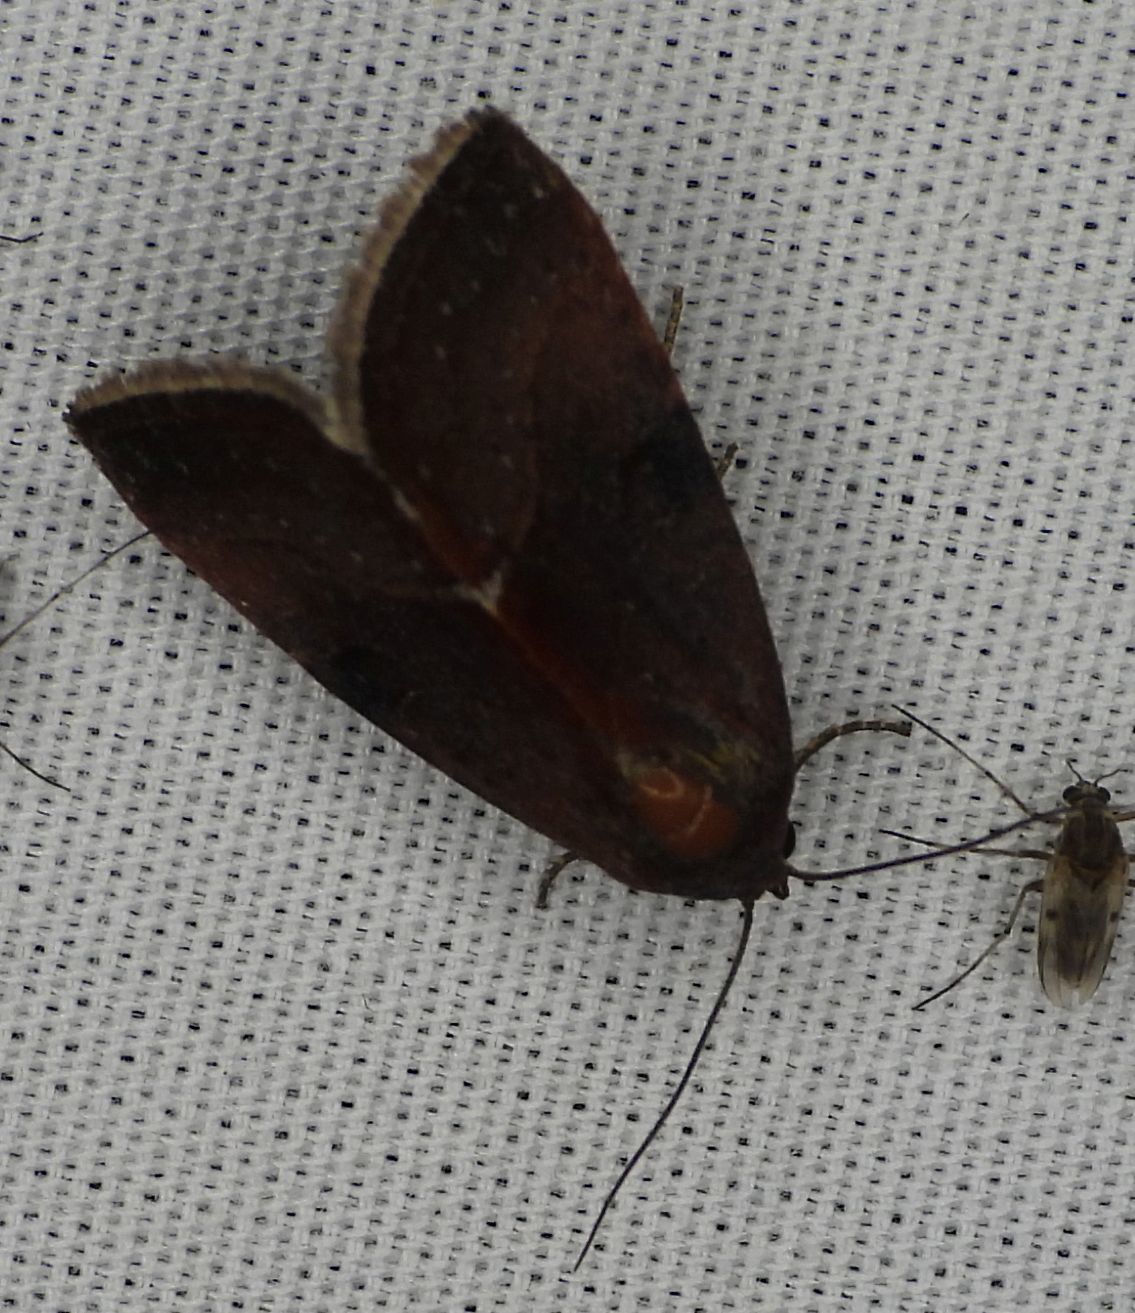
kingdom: Animalia
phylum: Arthropoda
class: Insecta
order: Lepidoptera
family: Noctuidae
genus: Galgula
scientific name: Galgula partita
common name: Wedgeling
